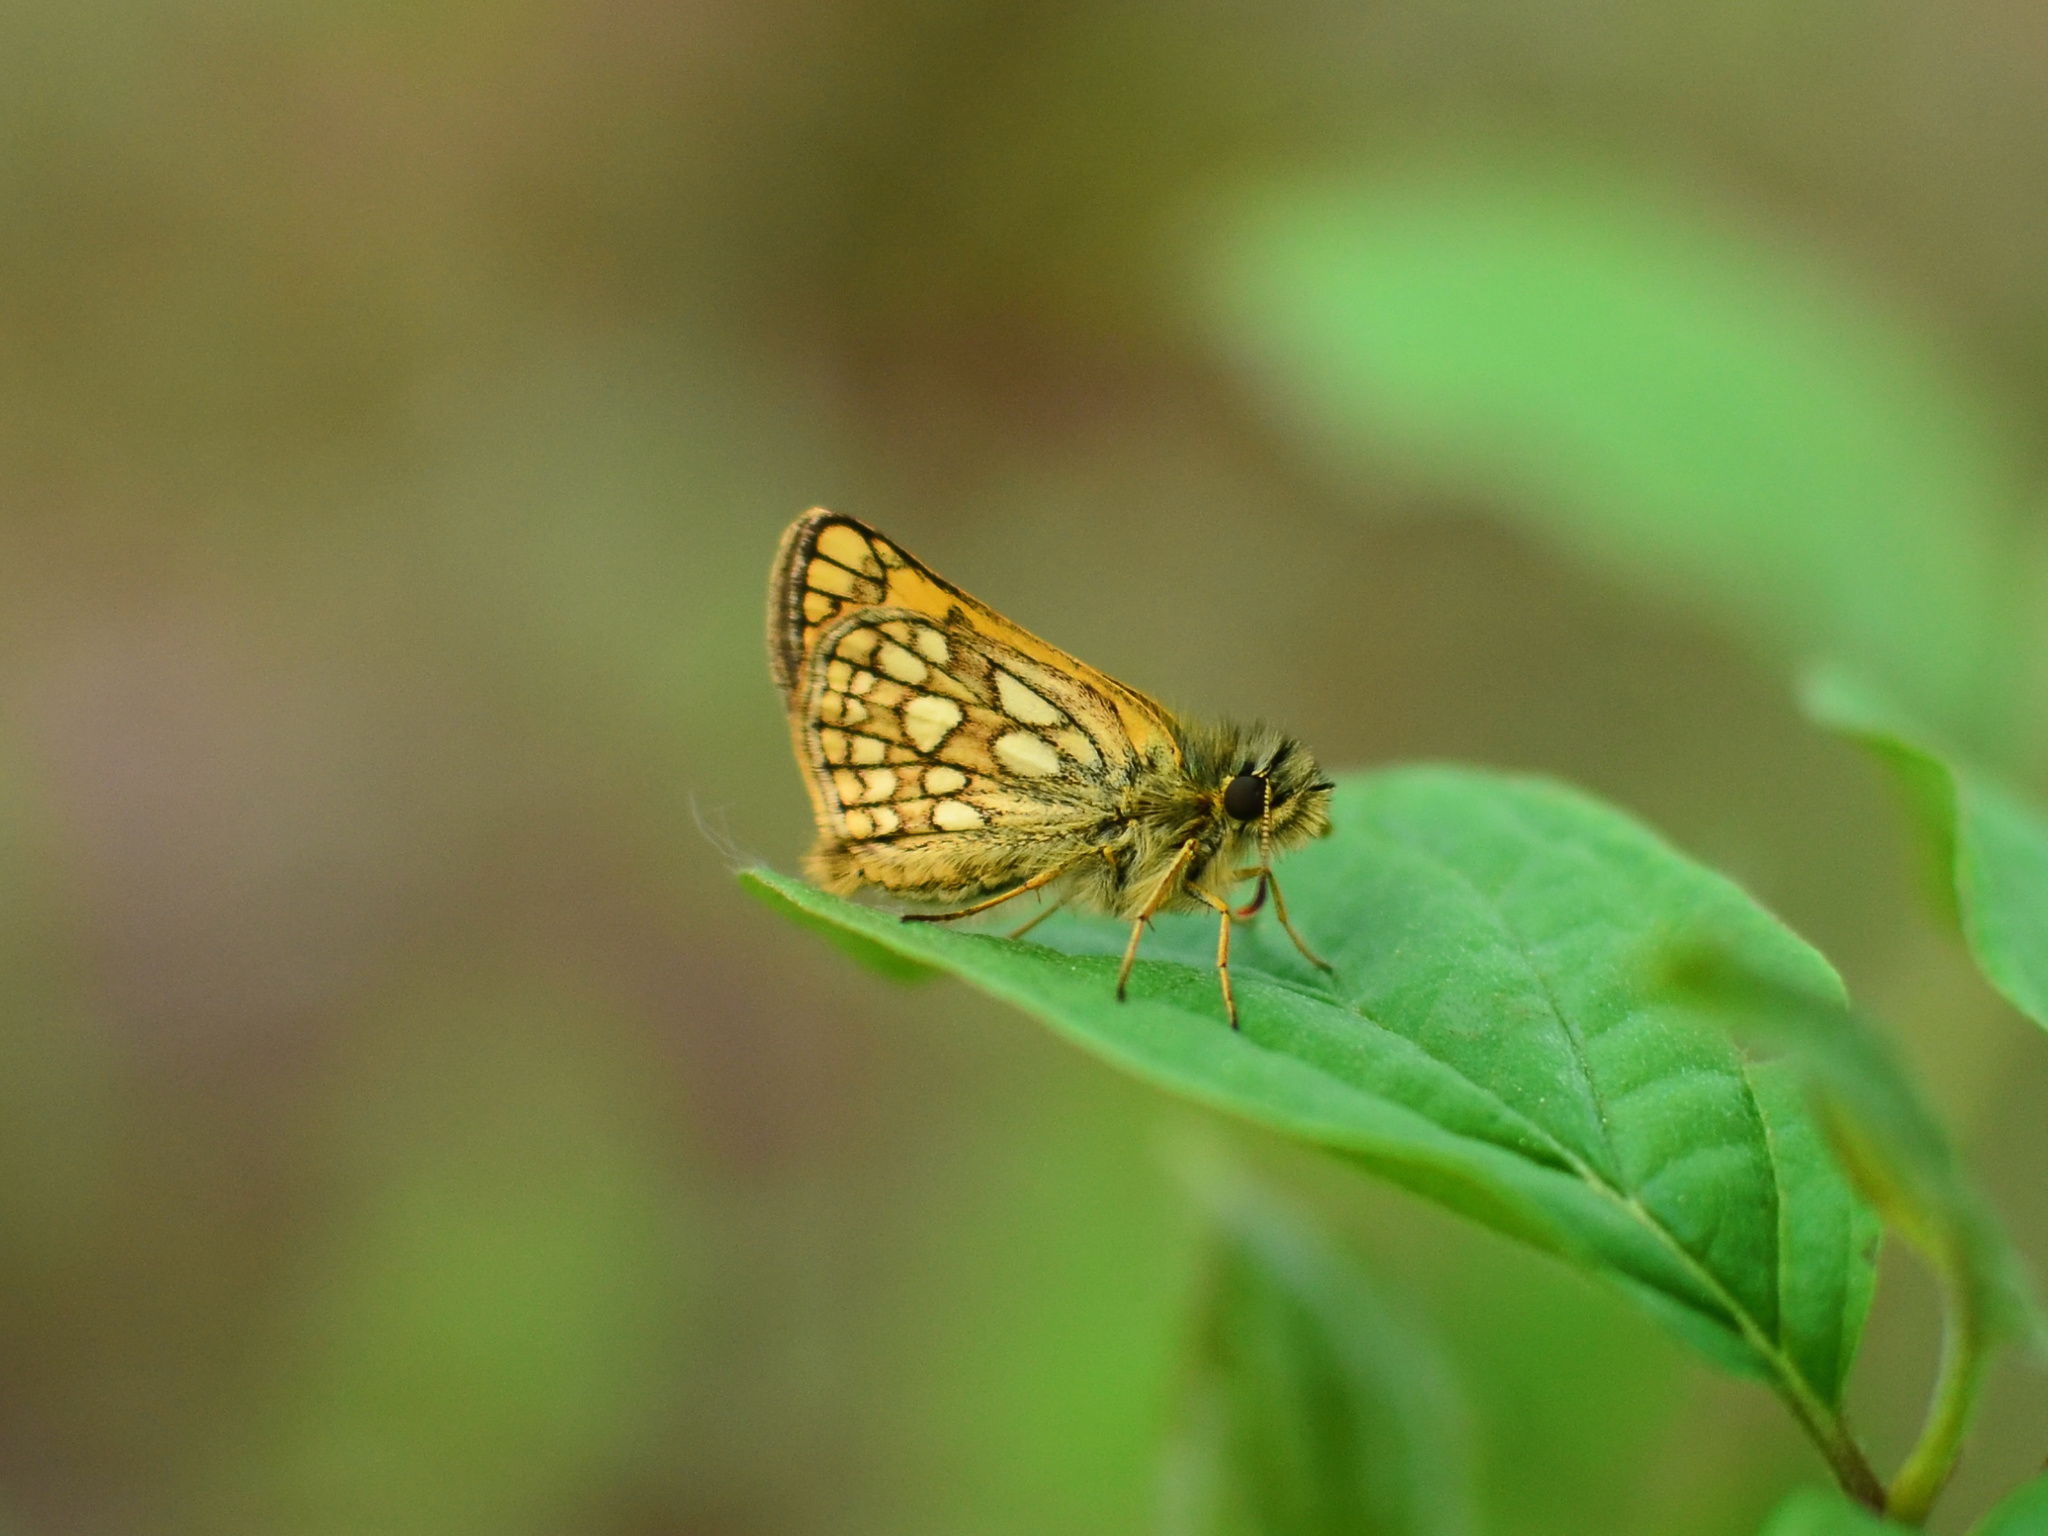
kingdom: Animalia
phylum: Arthropoda
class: Insecta
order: Lepidoptera
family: Hesperiidae
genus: Carterocephalus
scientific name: Carterocephalus palaemon
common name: Chequered skipper
